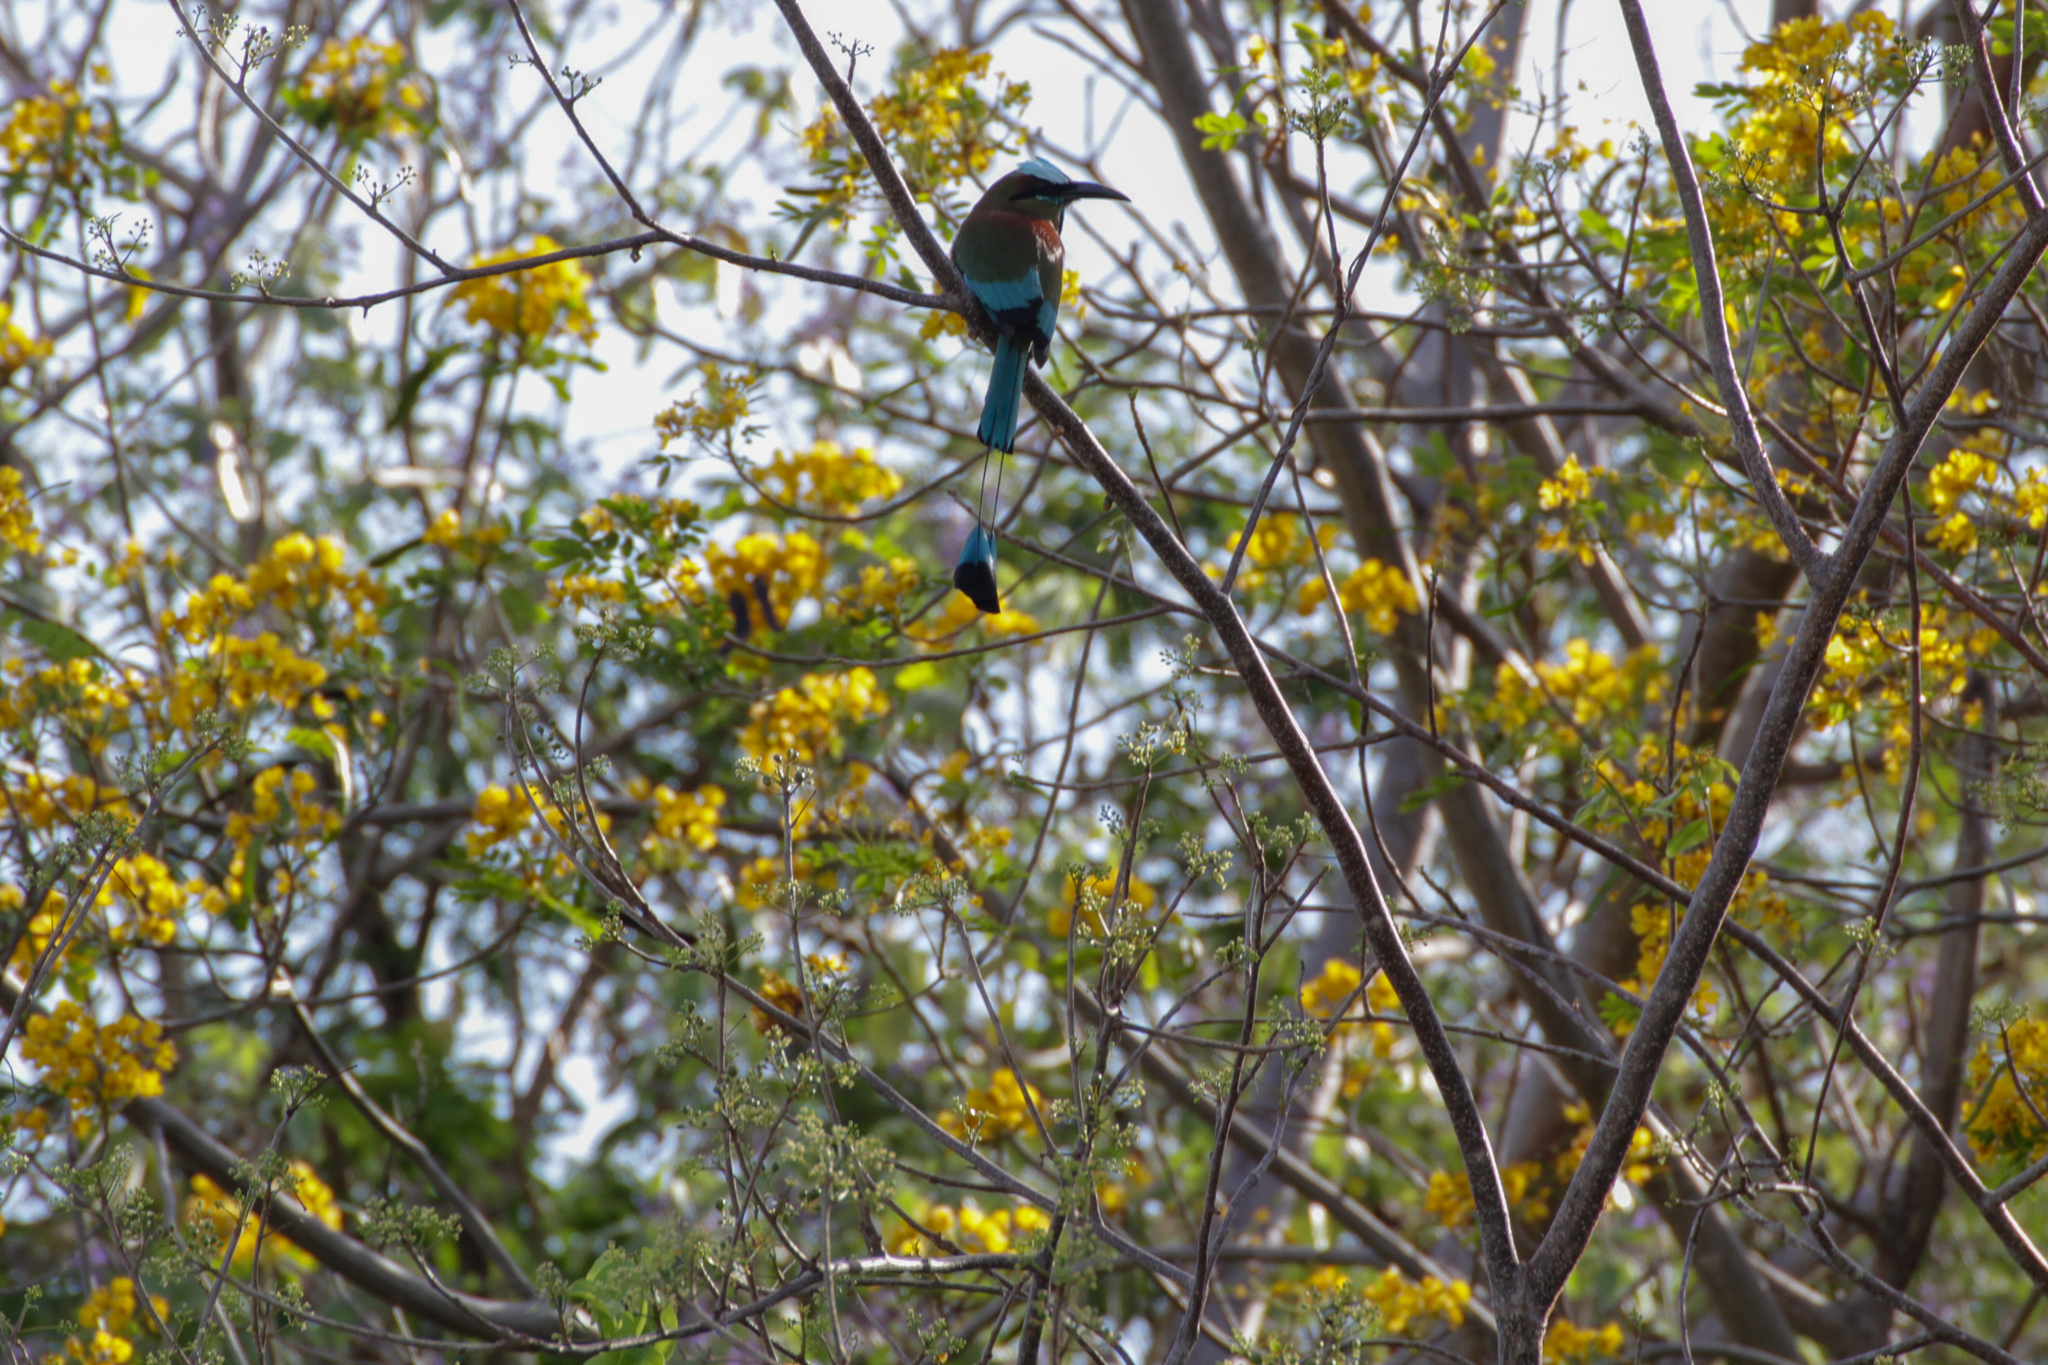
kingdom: Animalia
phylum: Chordata
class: Aves
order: Coraciiformes
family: Momotidae
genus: Eumomota
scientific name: Eumomota superciliosa
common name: Turquoise-browed motmot
